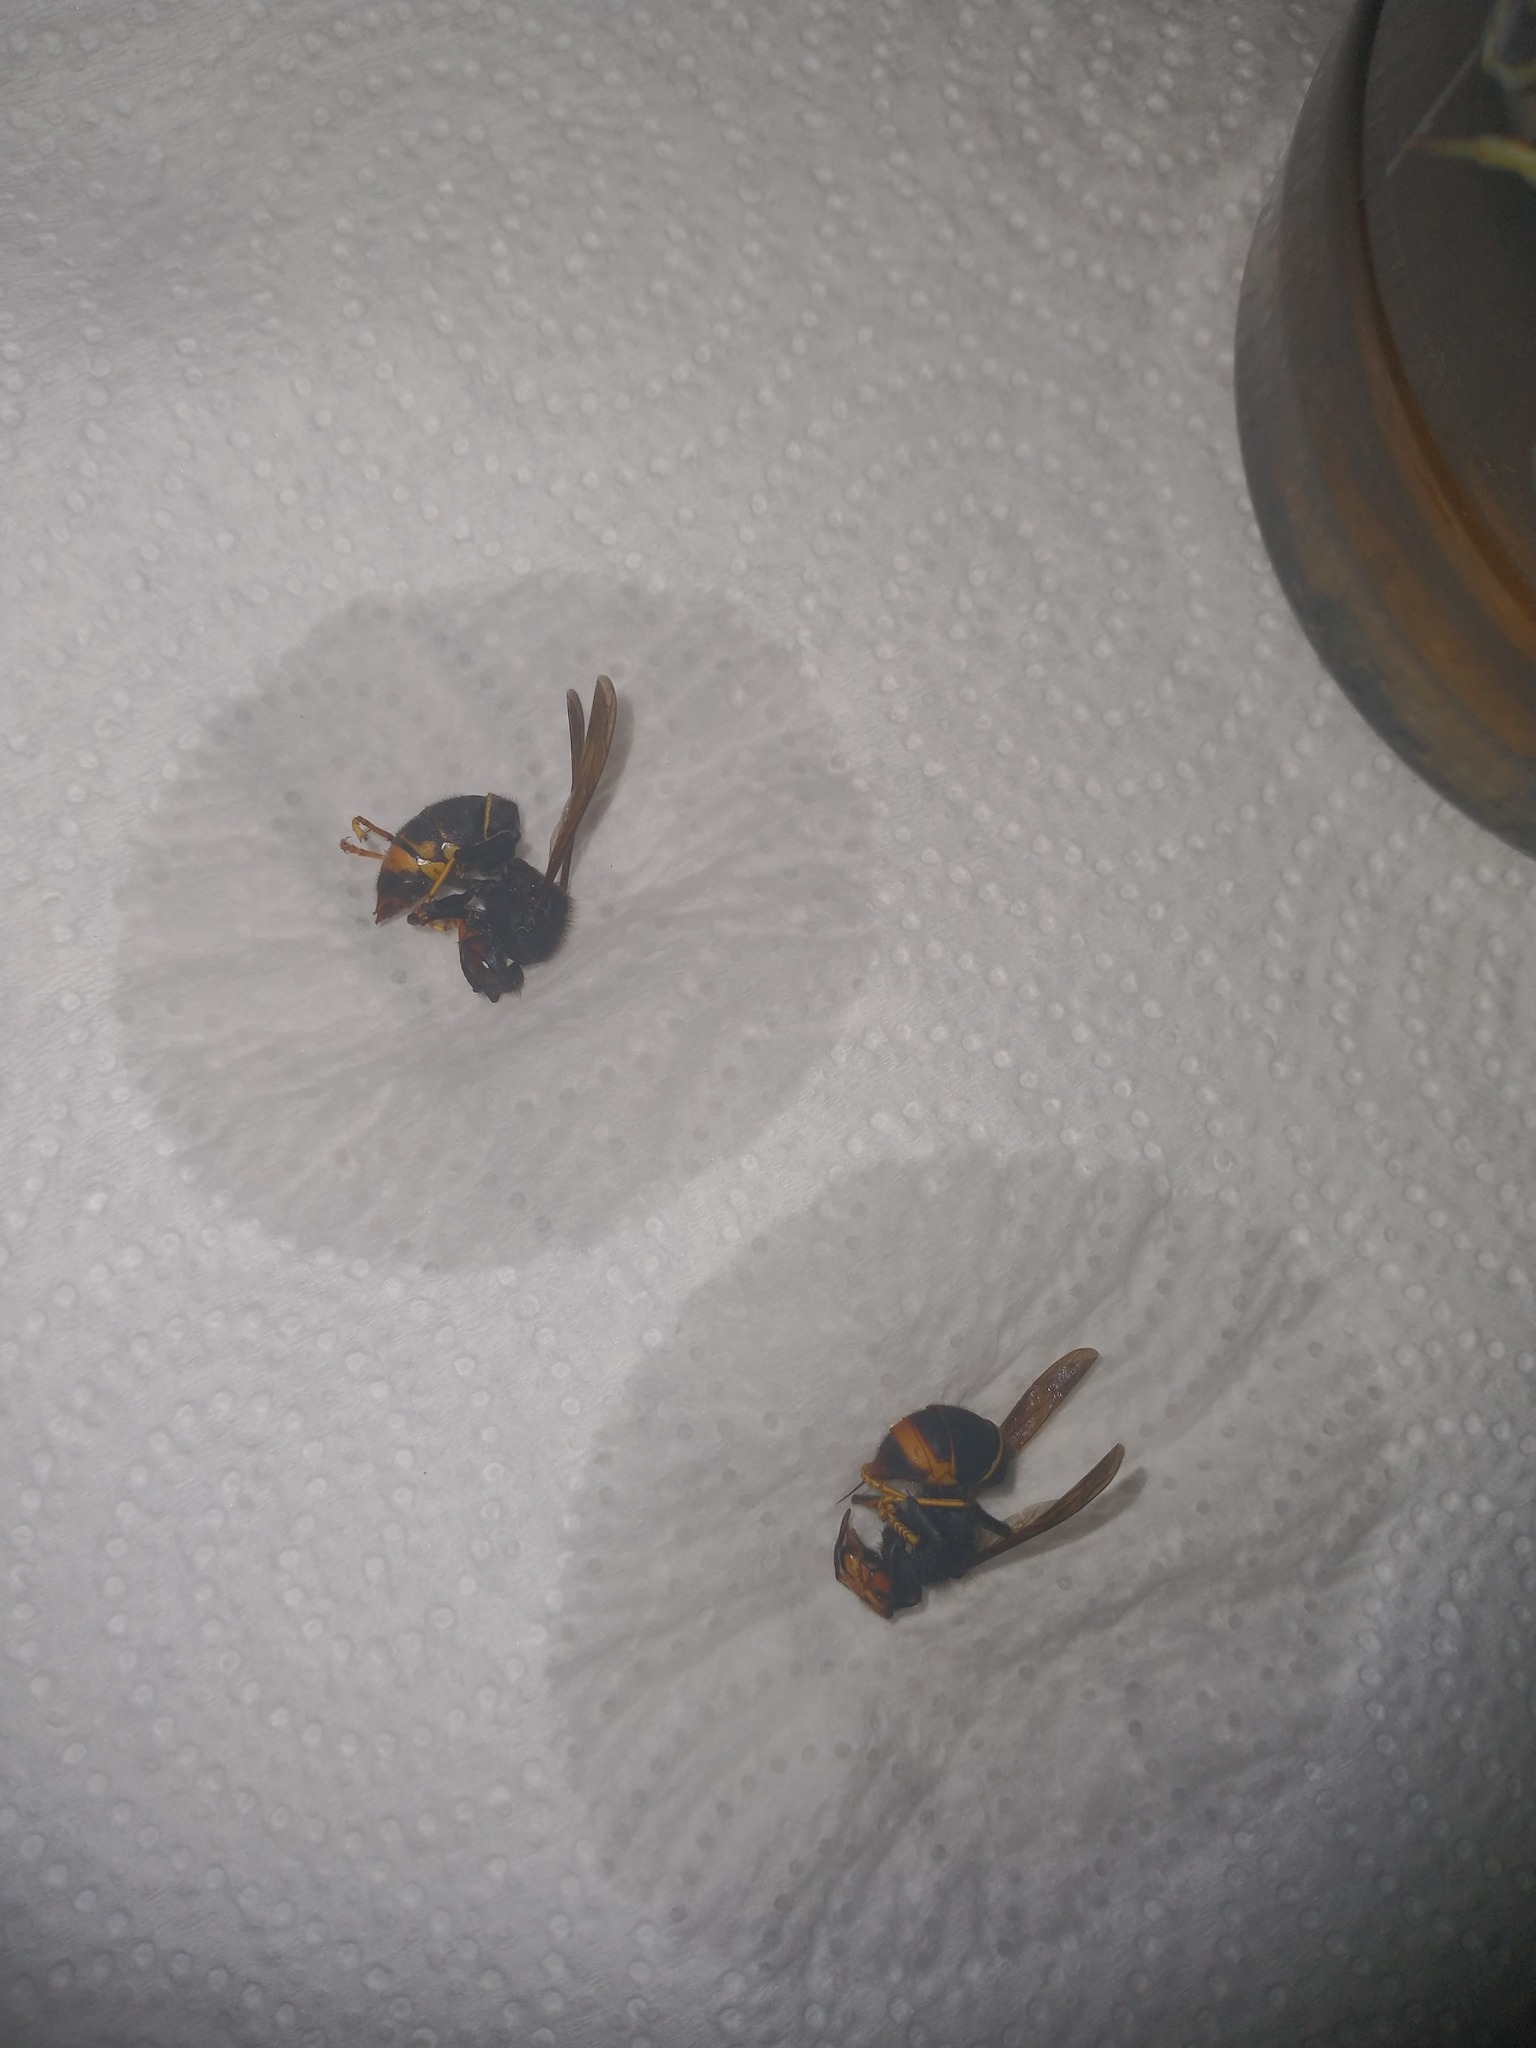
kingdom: Animalia
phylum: Arthropoda
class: Insecta
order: Hymenoptera
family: Vespidae
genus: Vespa
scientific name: Vespa velutina
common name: Asian hornet
